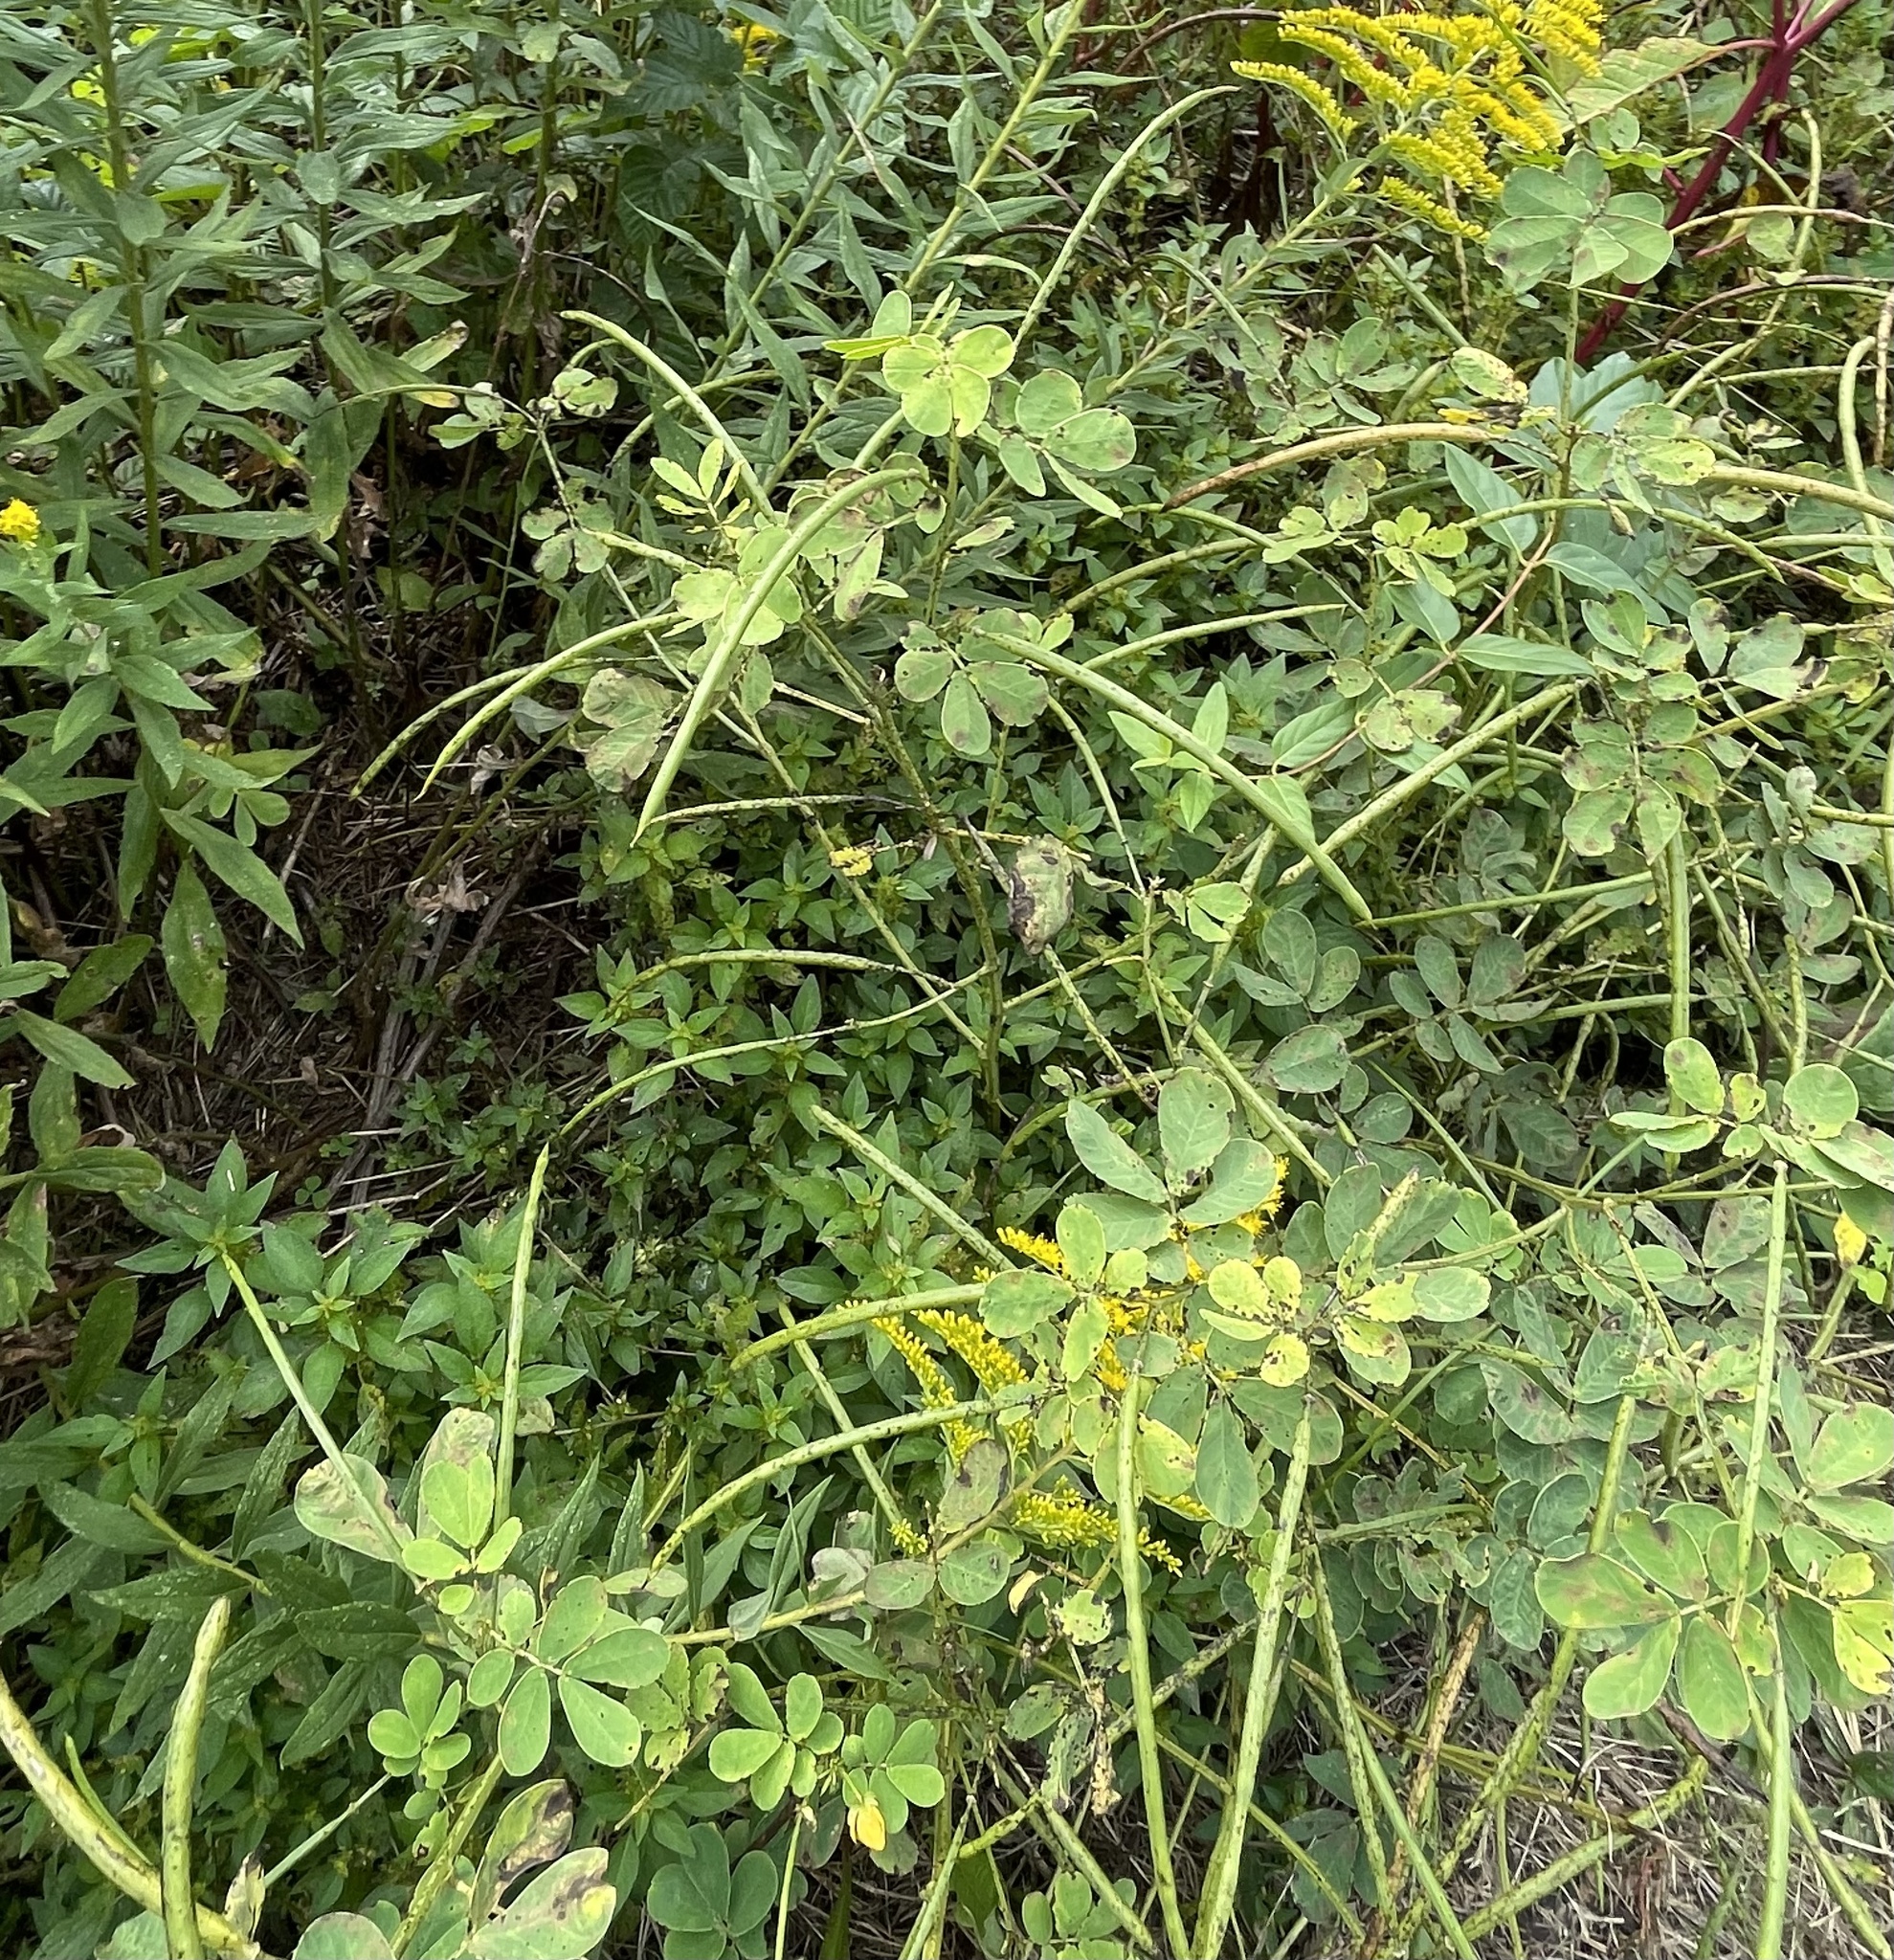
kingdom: Plantae
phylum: Tracheophyta
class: Magnoliopsida
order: Fabales
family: Fabaceae
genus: Senna
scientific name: Senna obtusifolia
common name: Java-bean
